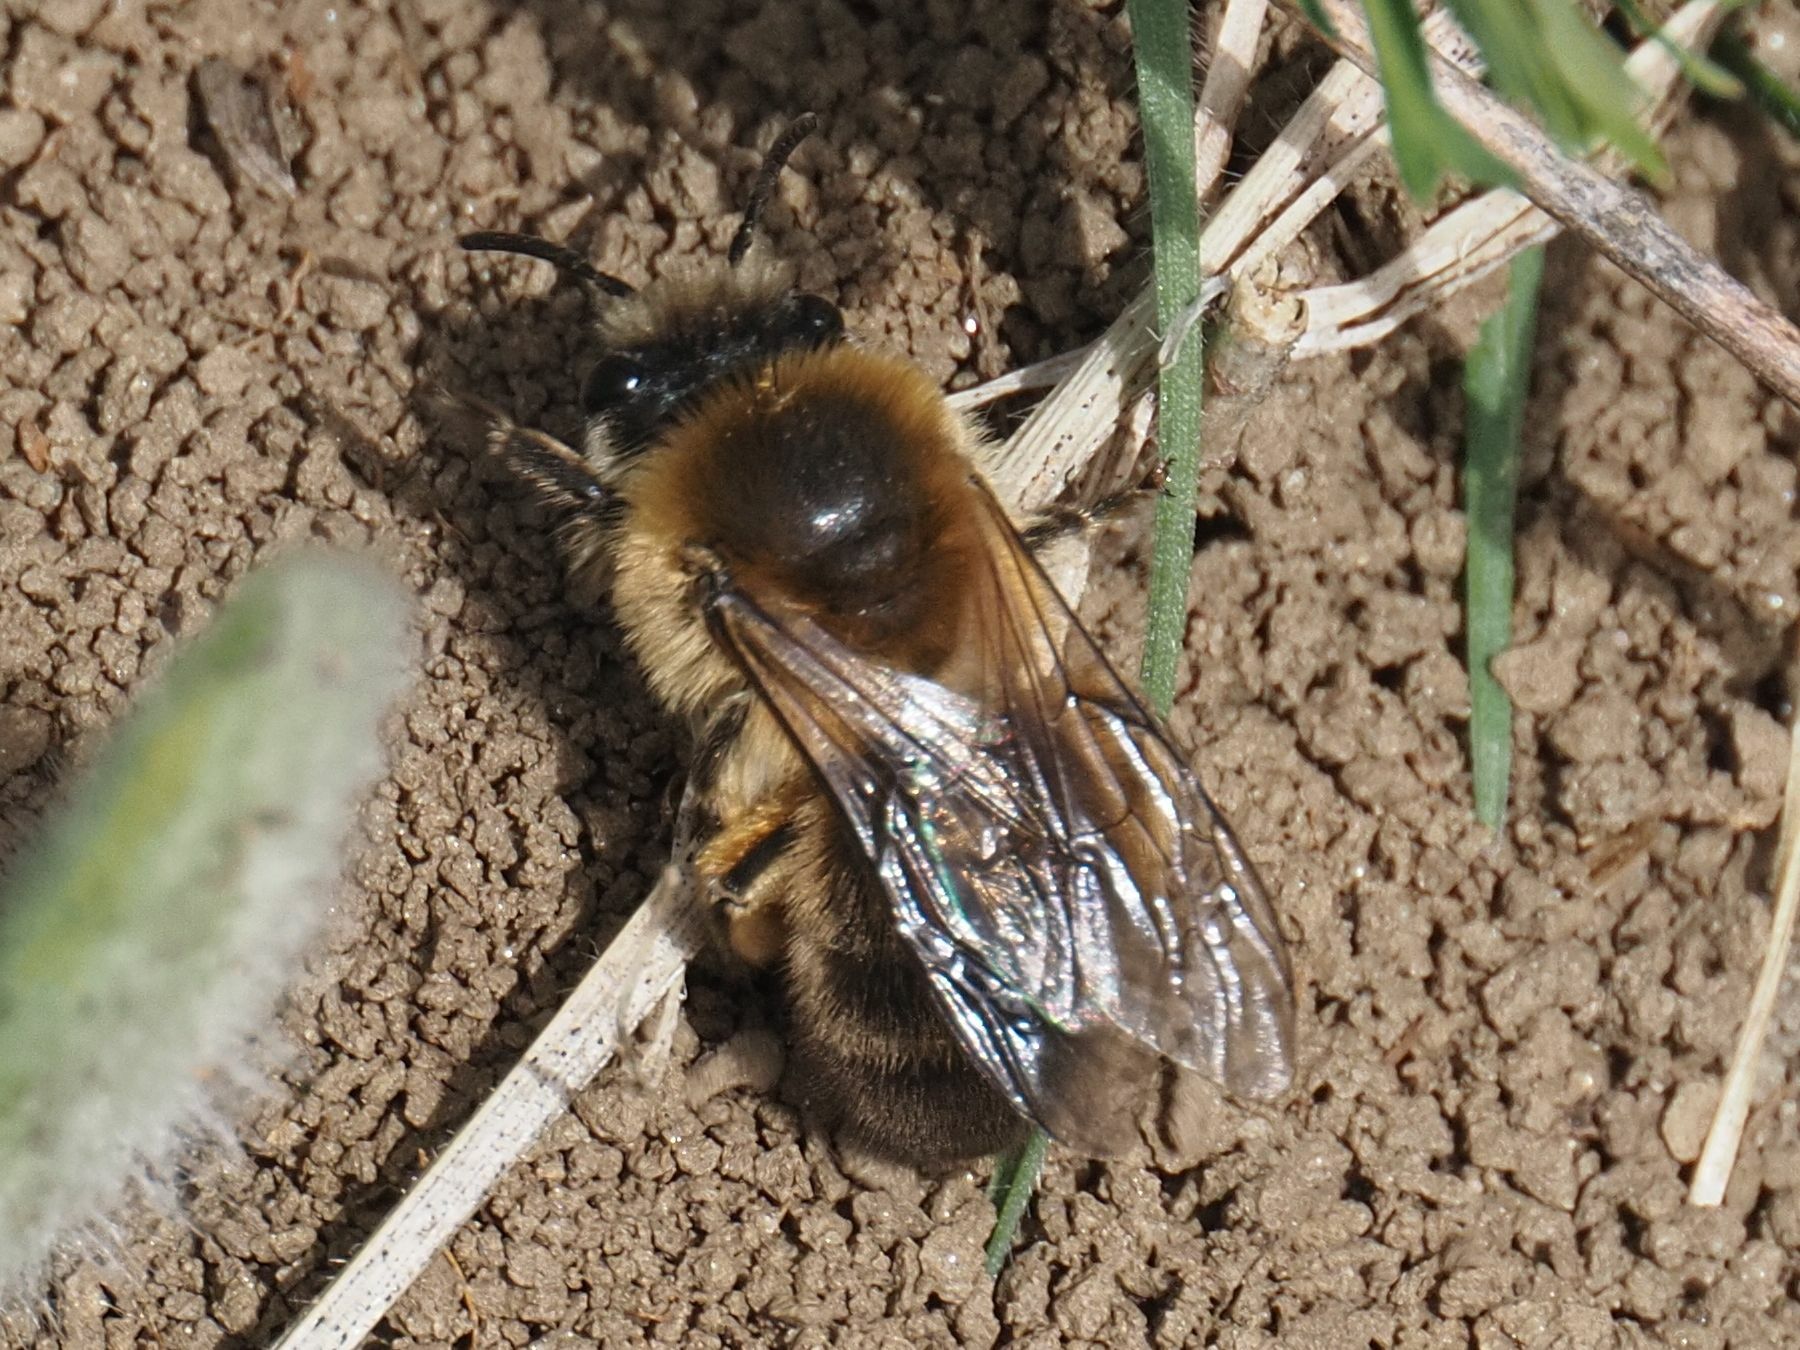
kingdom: Animalia
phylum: Arthropoda
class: Insecta
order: Hymenoptera
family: Colletidae
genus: Colletes
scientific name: Colletes cunicularius
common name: Early colletes
